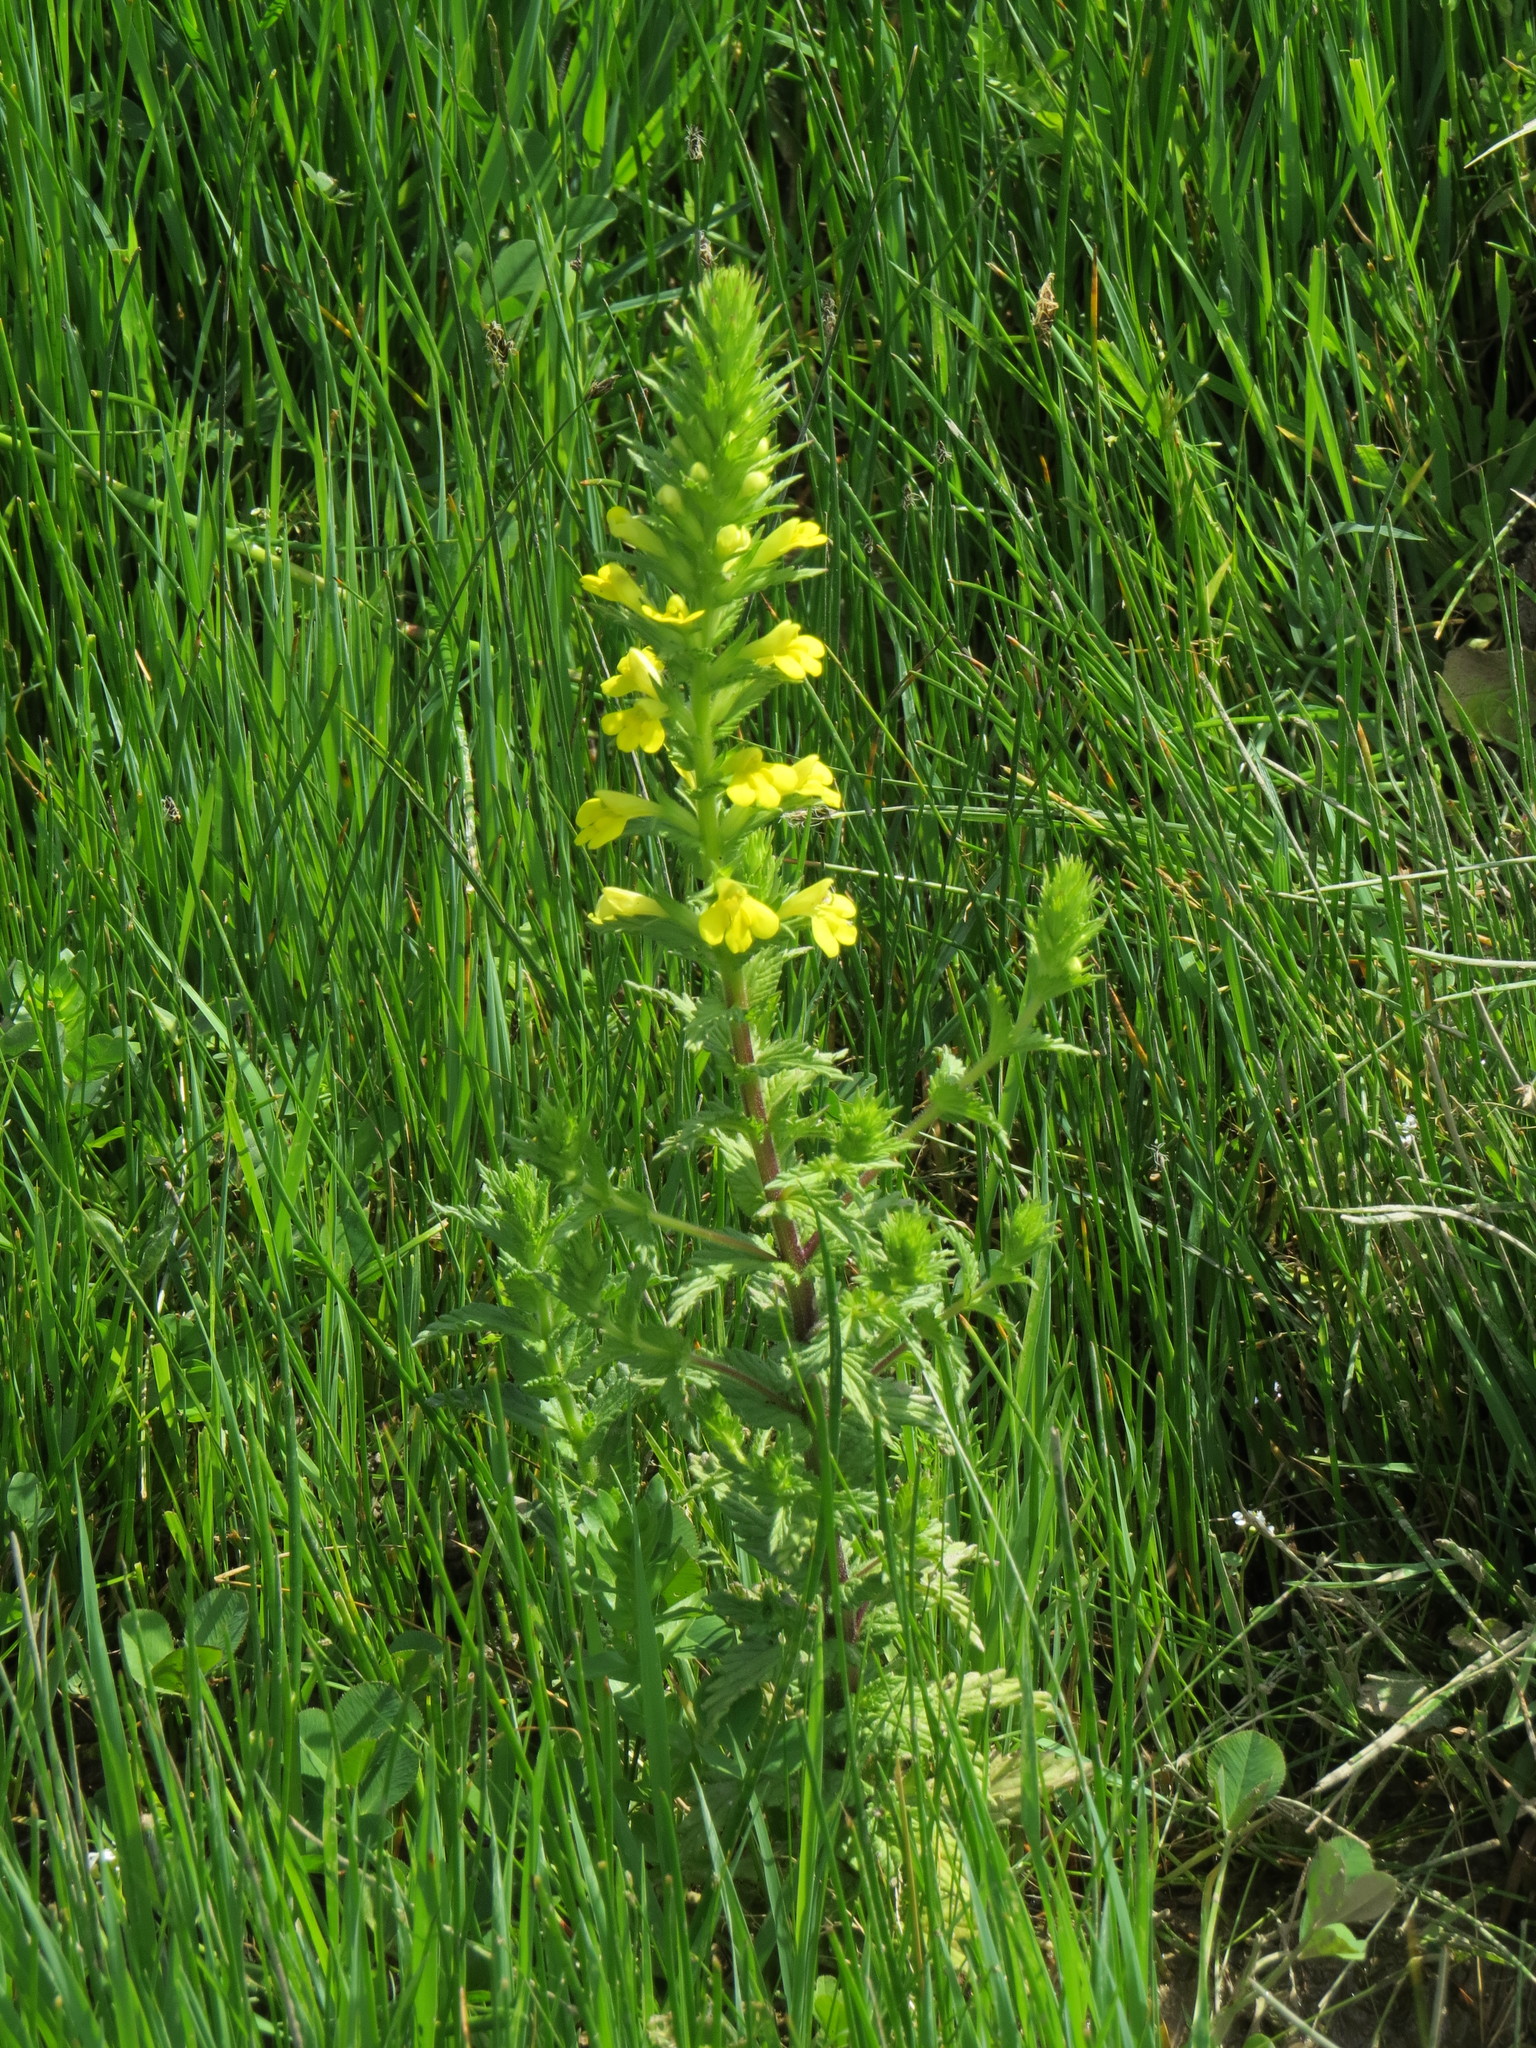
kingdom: Plantae
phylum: Tracheophyta
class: Magnoliopsida
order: Lamiales
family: Orobanchaceae
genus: Bellardia
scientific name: Bellardia viscosa
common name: Sticky parentucellia
